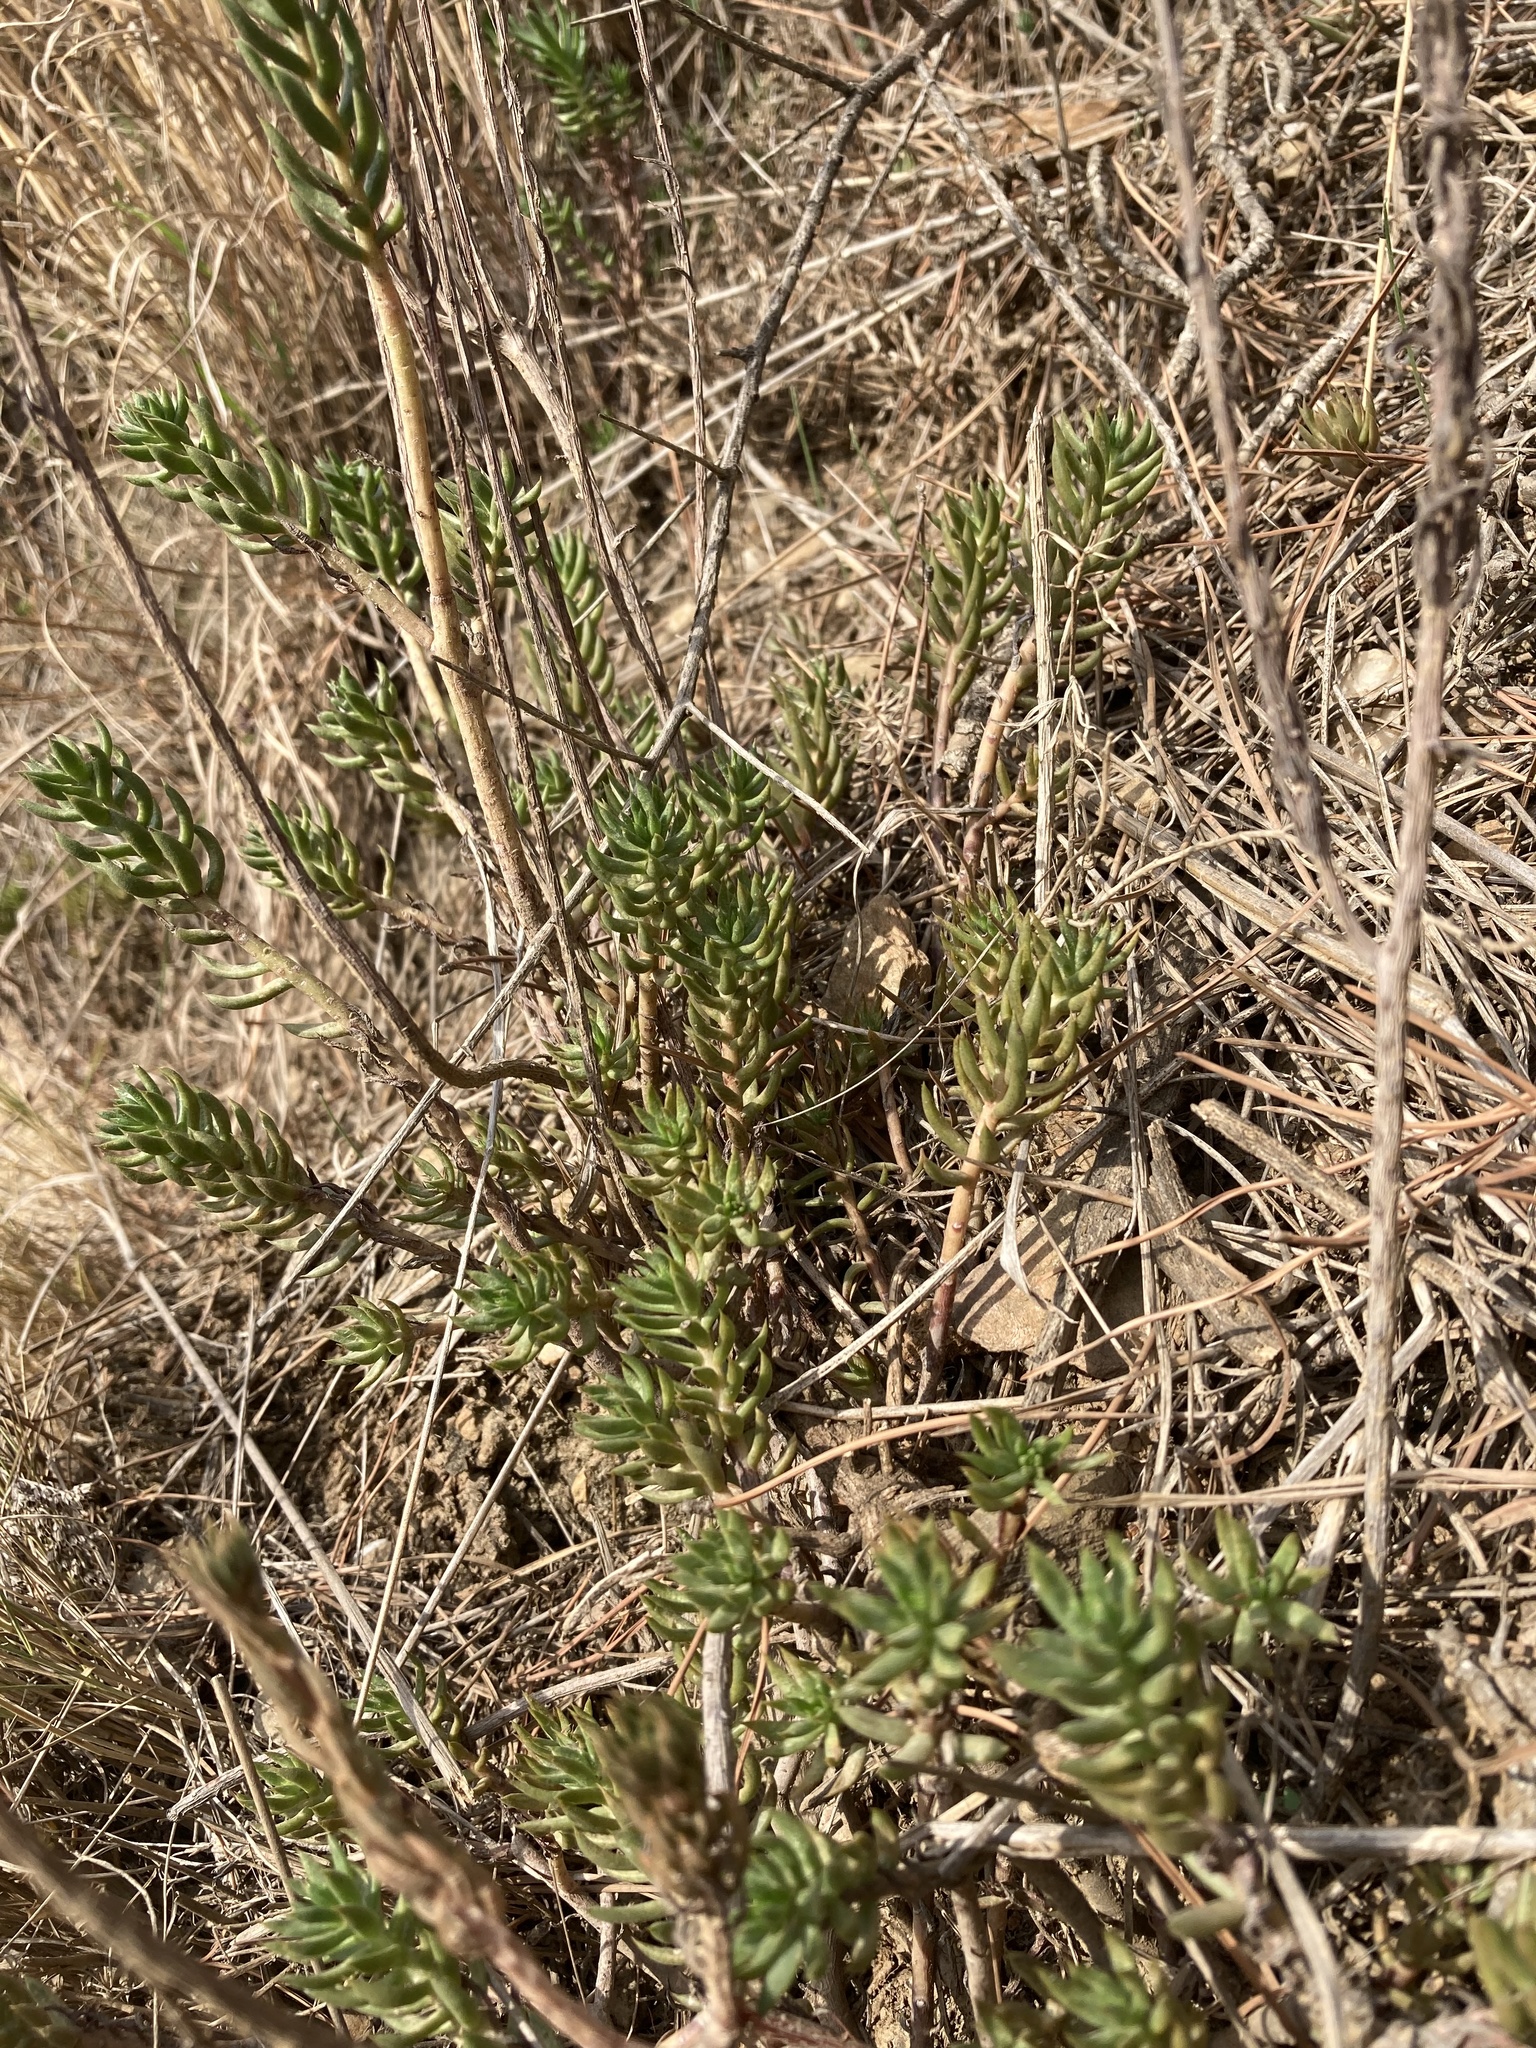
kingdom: Plantae
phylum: Tracheophyta
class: Magnoliopsida
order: Saxifragales
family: Crassulaceae
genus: Petrosedum
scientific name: Petrosedum sediforme
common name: Pale stonecrop
